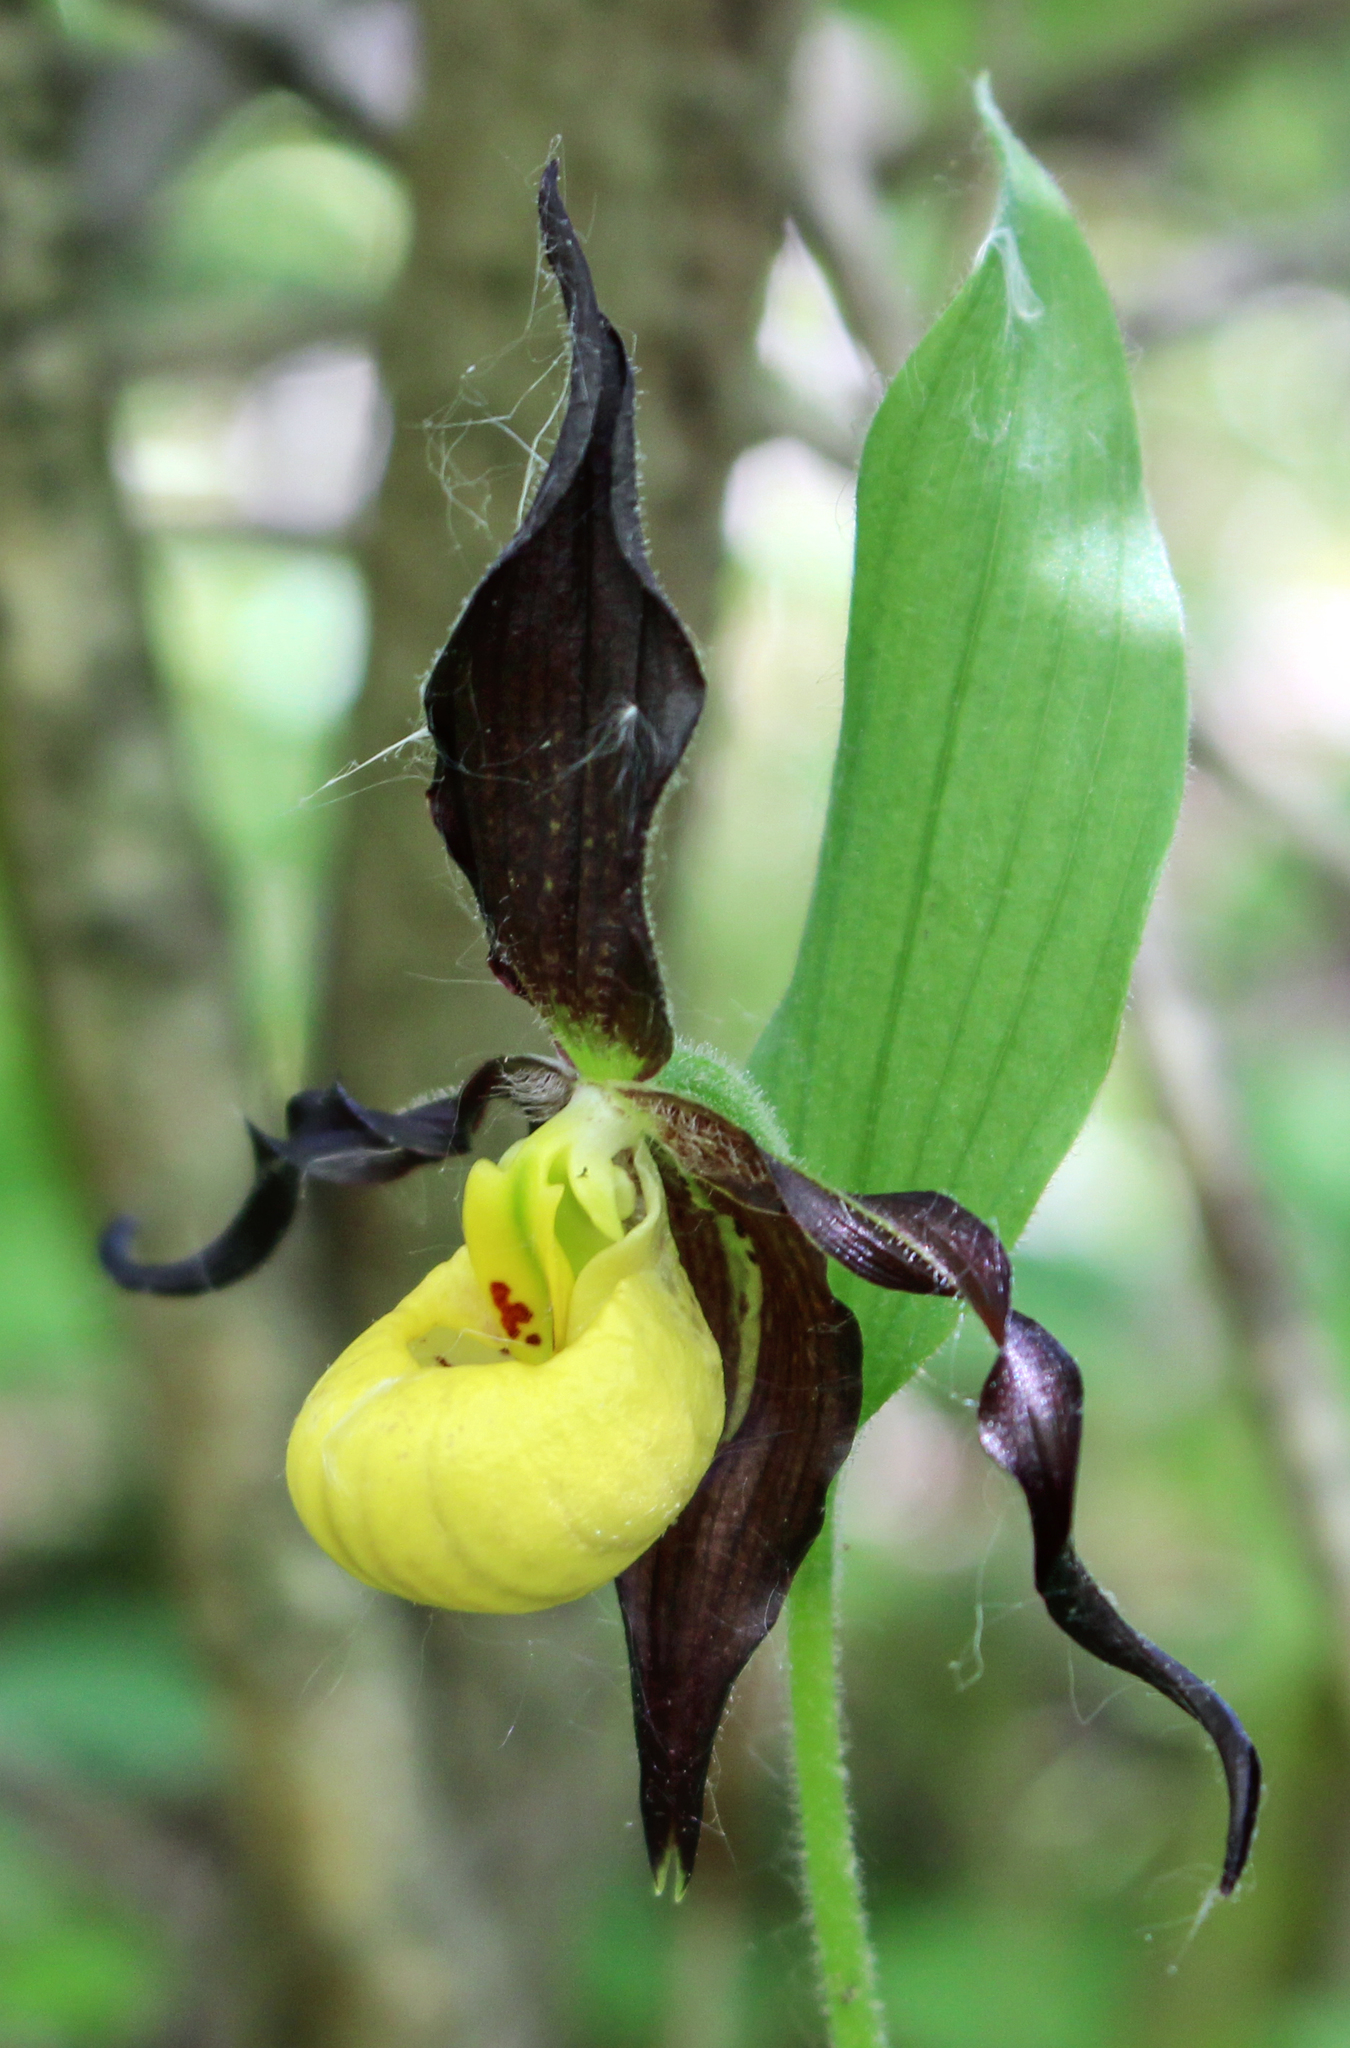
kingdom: Plantae
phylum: Tracheophyta
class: Liliopsida
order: Asparagales
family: Orchidaceae
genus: Cypripedium
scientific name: Cypripedium parviflorum
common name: American yellow lady's-slipper
